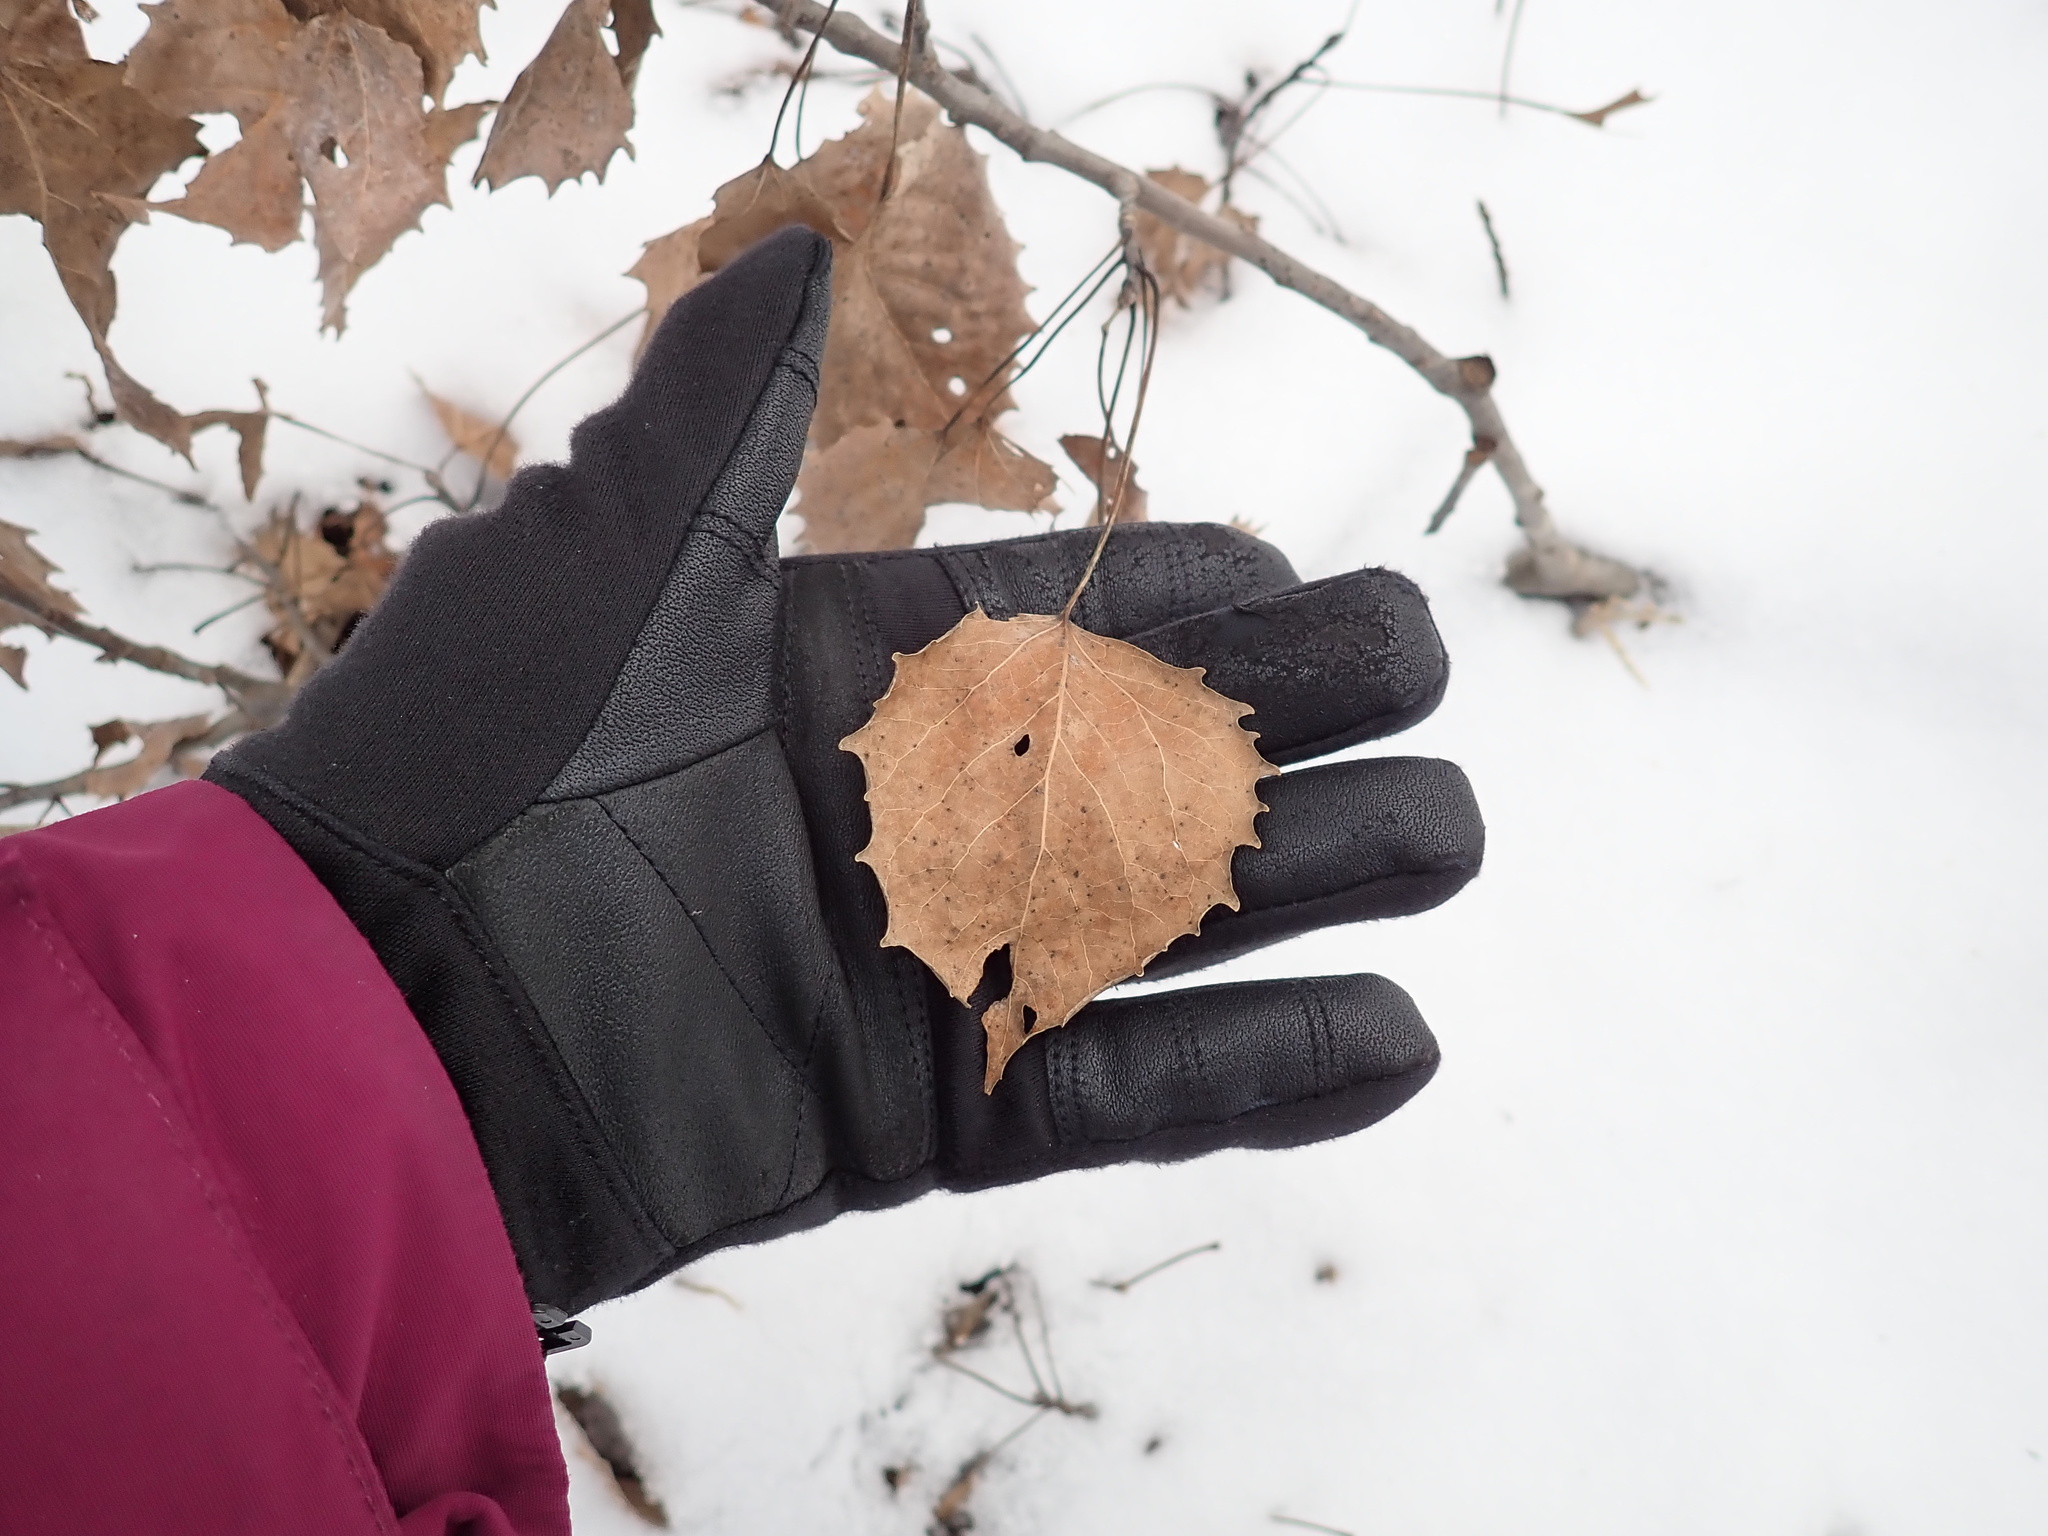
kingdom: Plantae
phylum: Tracheophyta
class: Magnoliopsida
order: Malpighiales
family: Salicaceae
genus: Populus
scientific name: Populus grandidentata
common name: Bigtooth aspen
